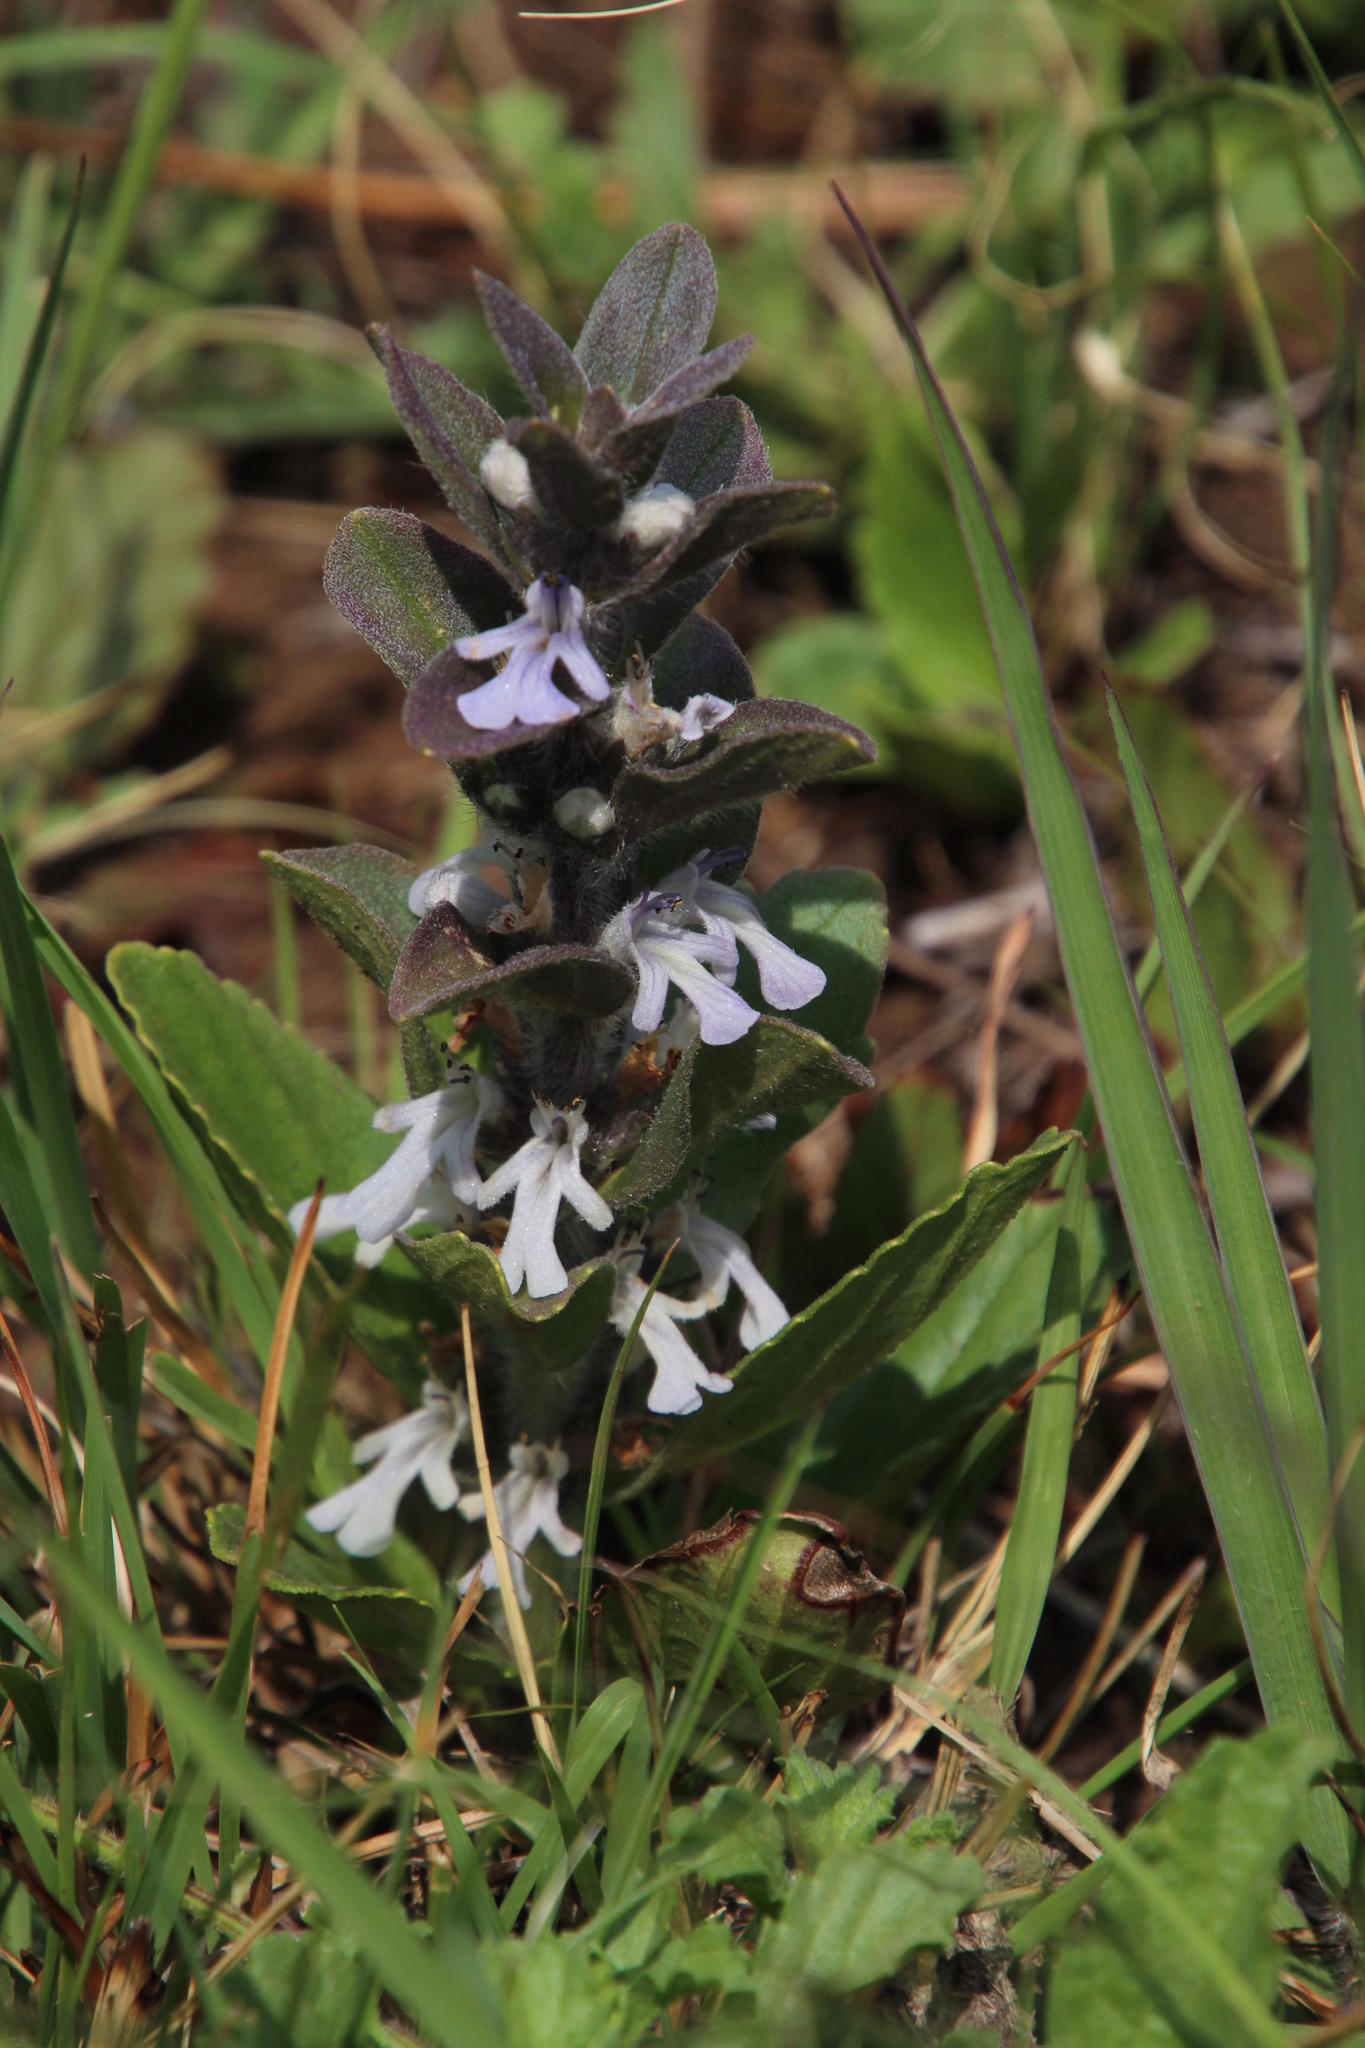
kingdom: Plantae
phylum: Tracheophyta
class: Magnoliopsida
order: Lamiales
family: Lamiaceae
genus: Ajuga
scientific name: Ajuga ophrydis
